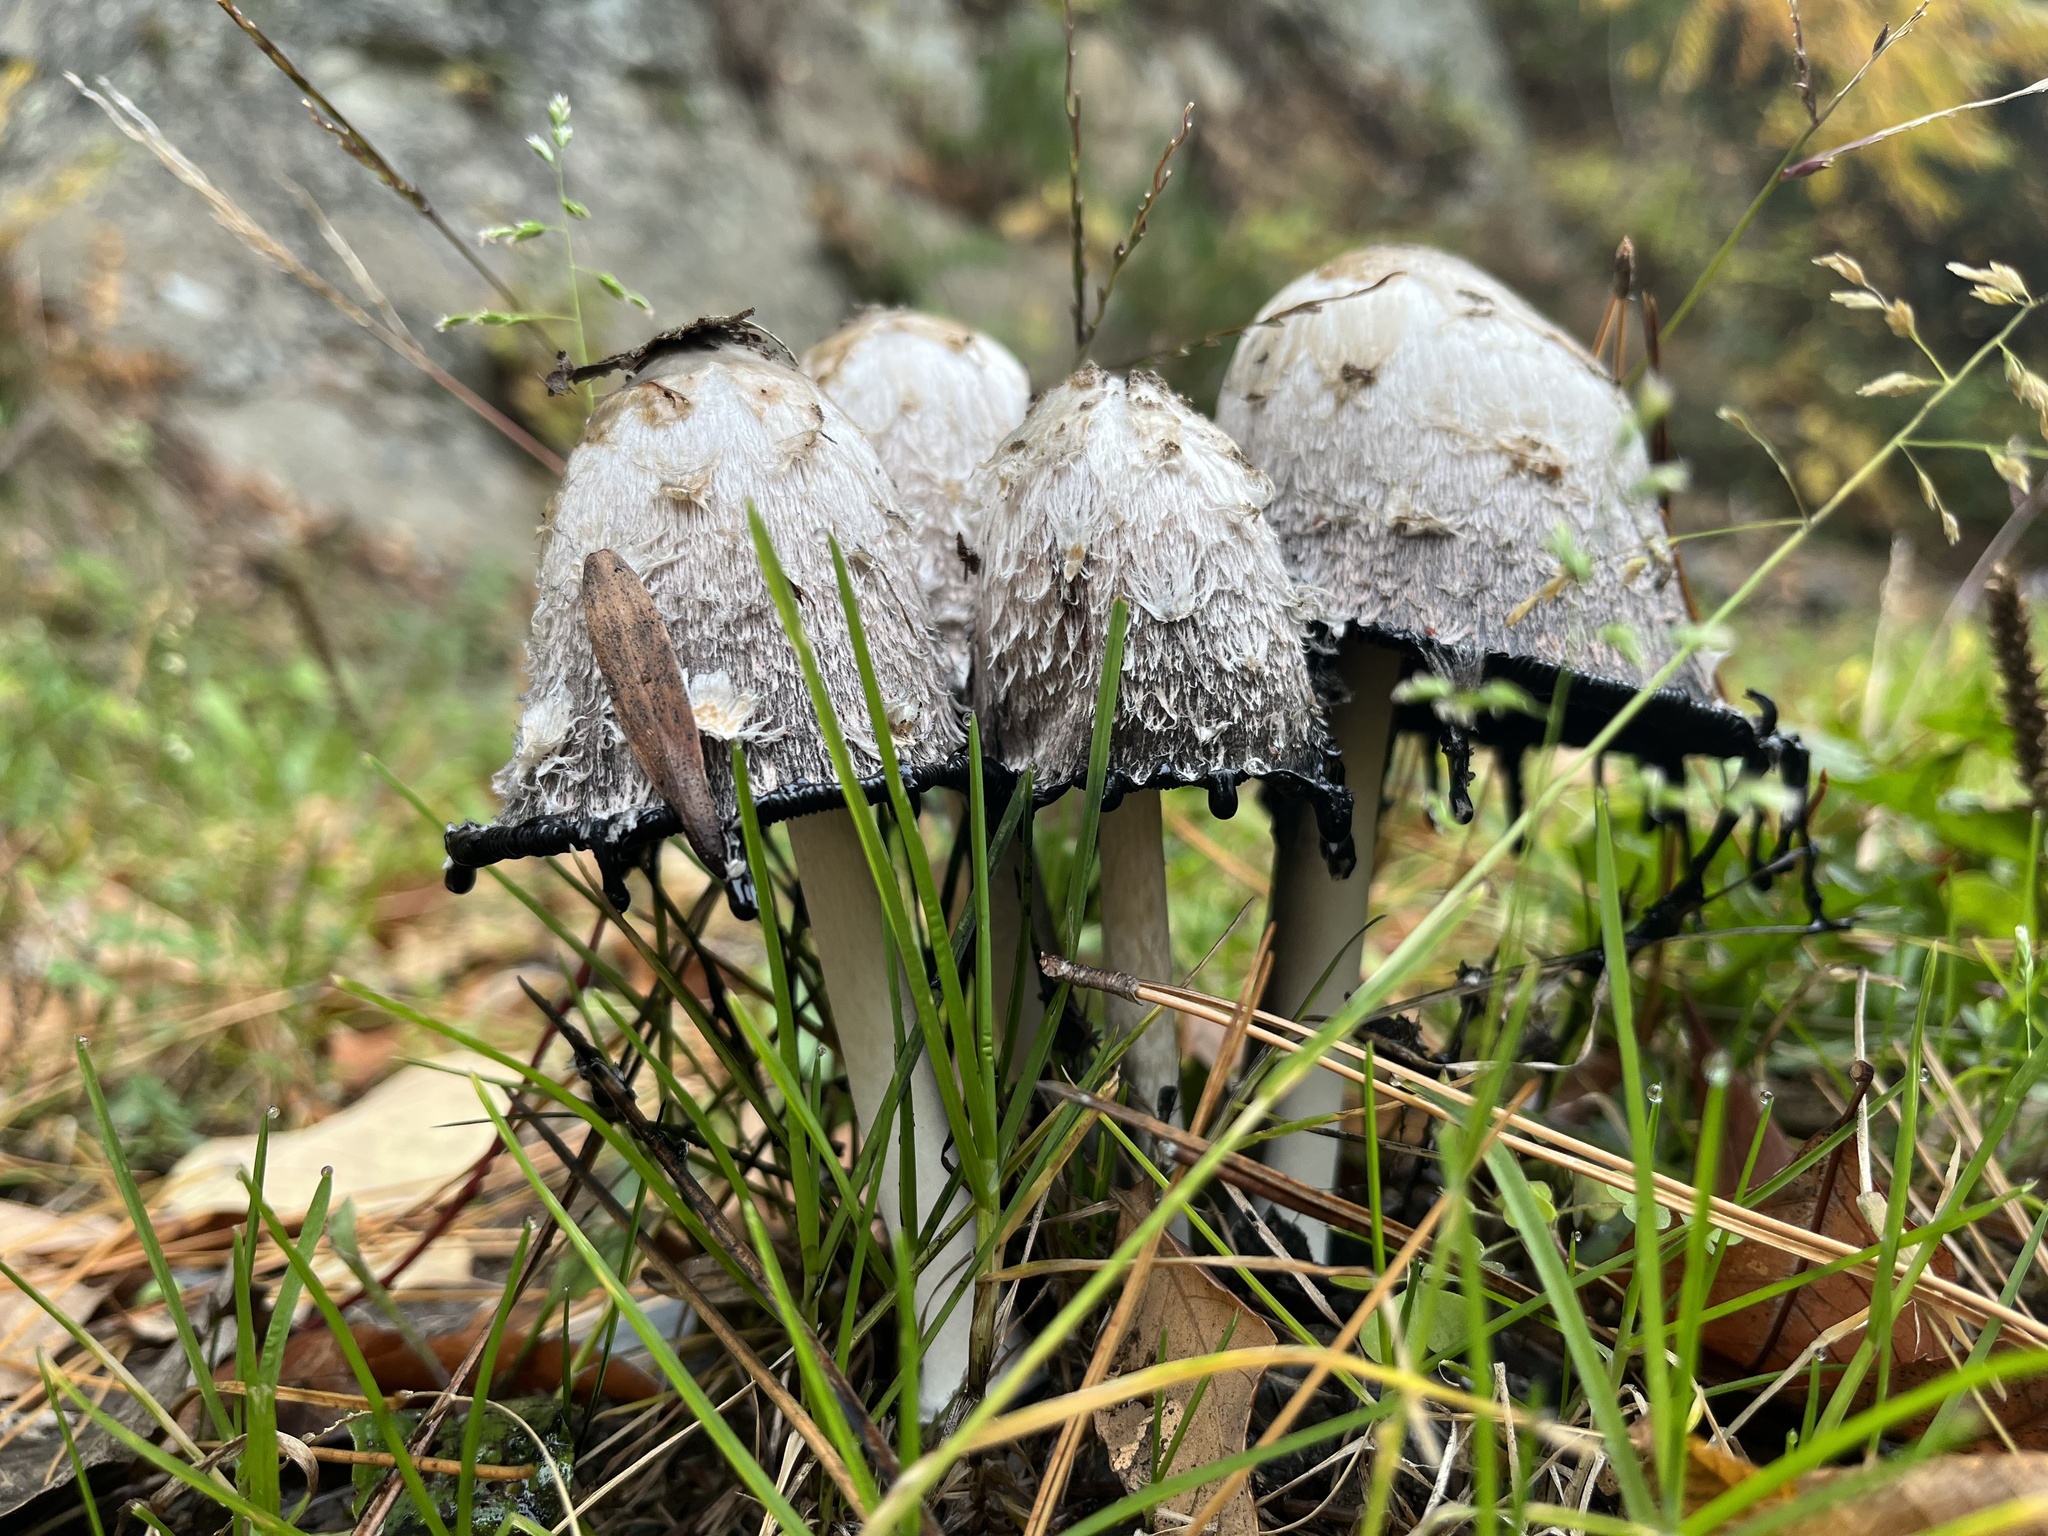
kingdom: Fungi
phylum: Basidiomycota
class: Agaricomycetes
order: Agaricales
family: Agaricaceae
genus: Coprinus
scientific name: Coprinus comatus
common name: Lawyer's wig
